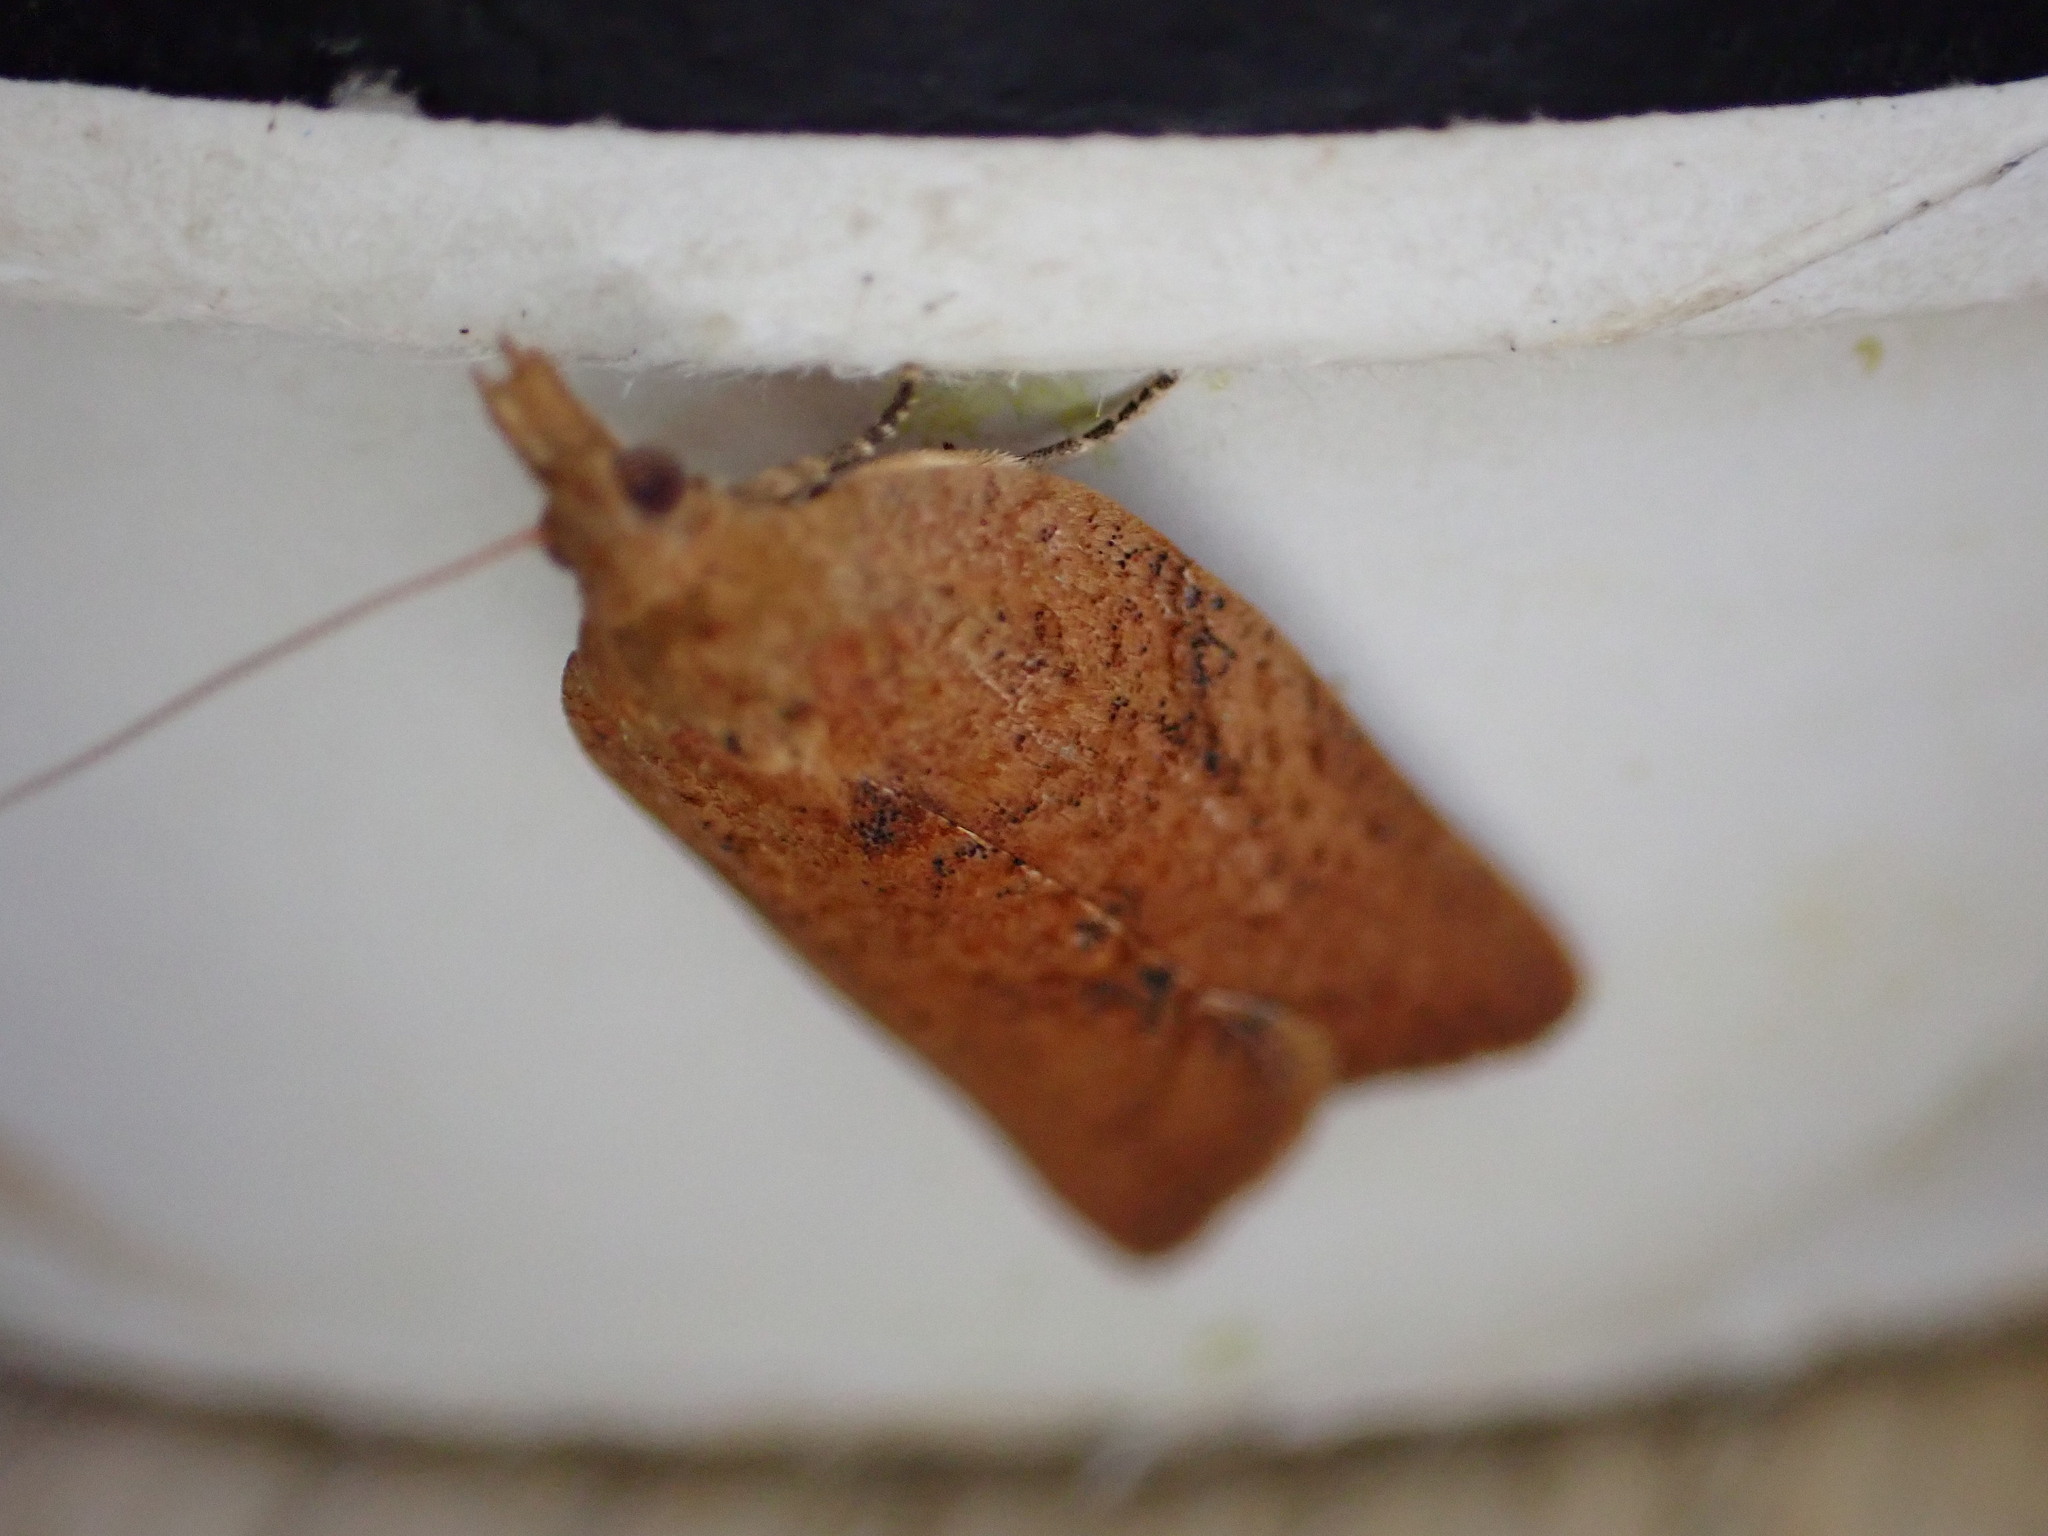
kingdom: Animalia
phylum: Arthropoda
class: Insecta
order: Lepidoptera
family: Tortricidae
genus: Epiphyas
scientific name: Epiphyas postvittana
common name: Light brown apple moth
